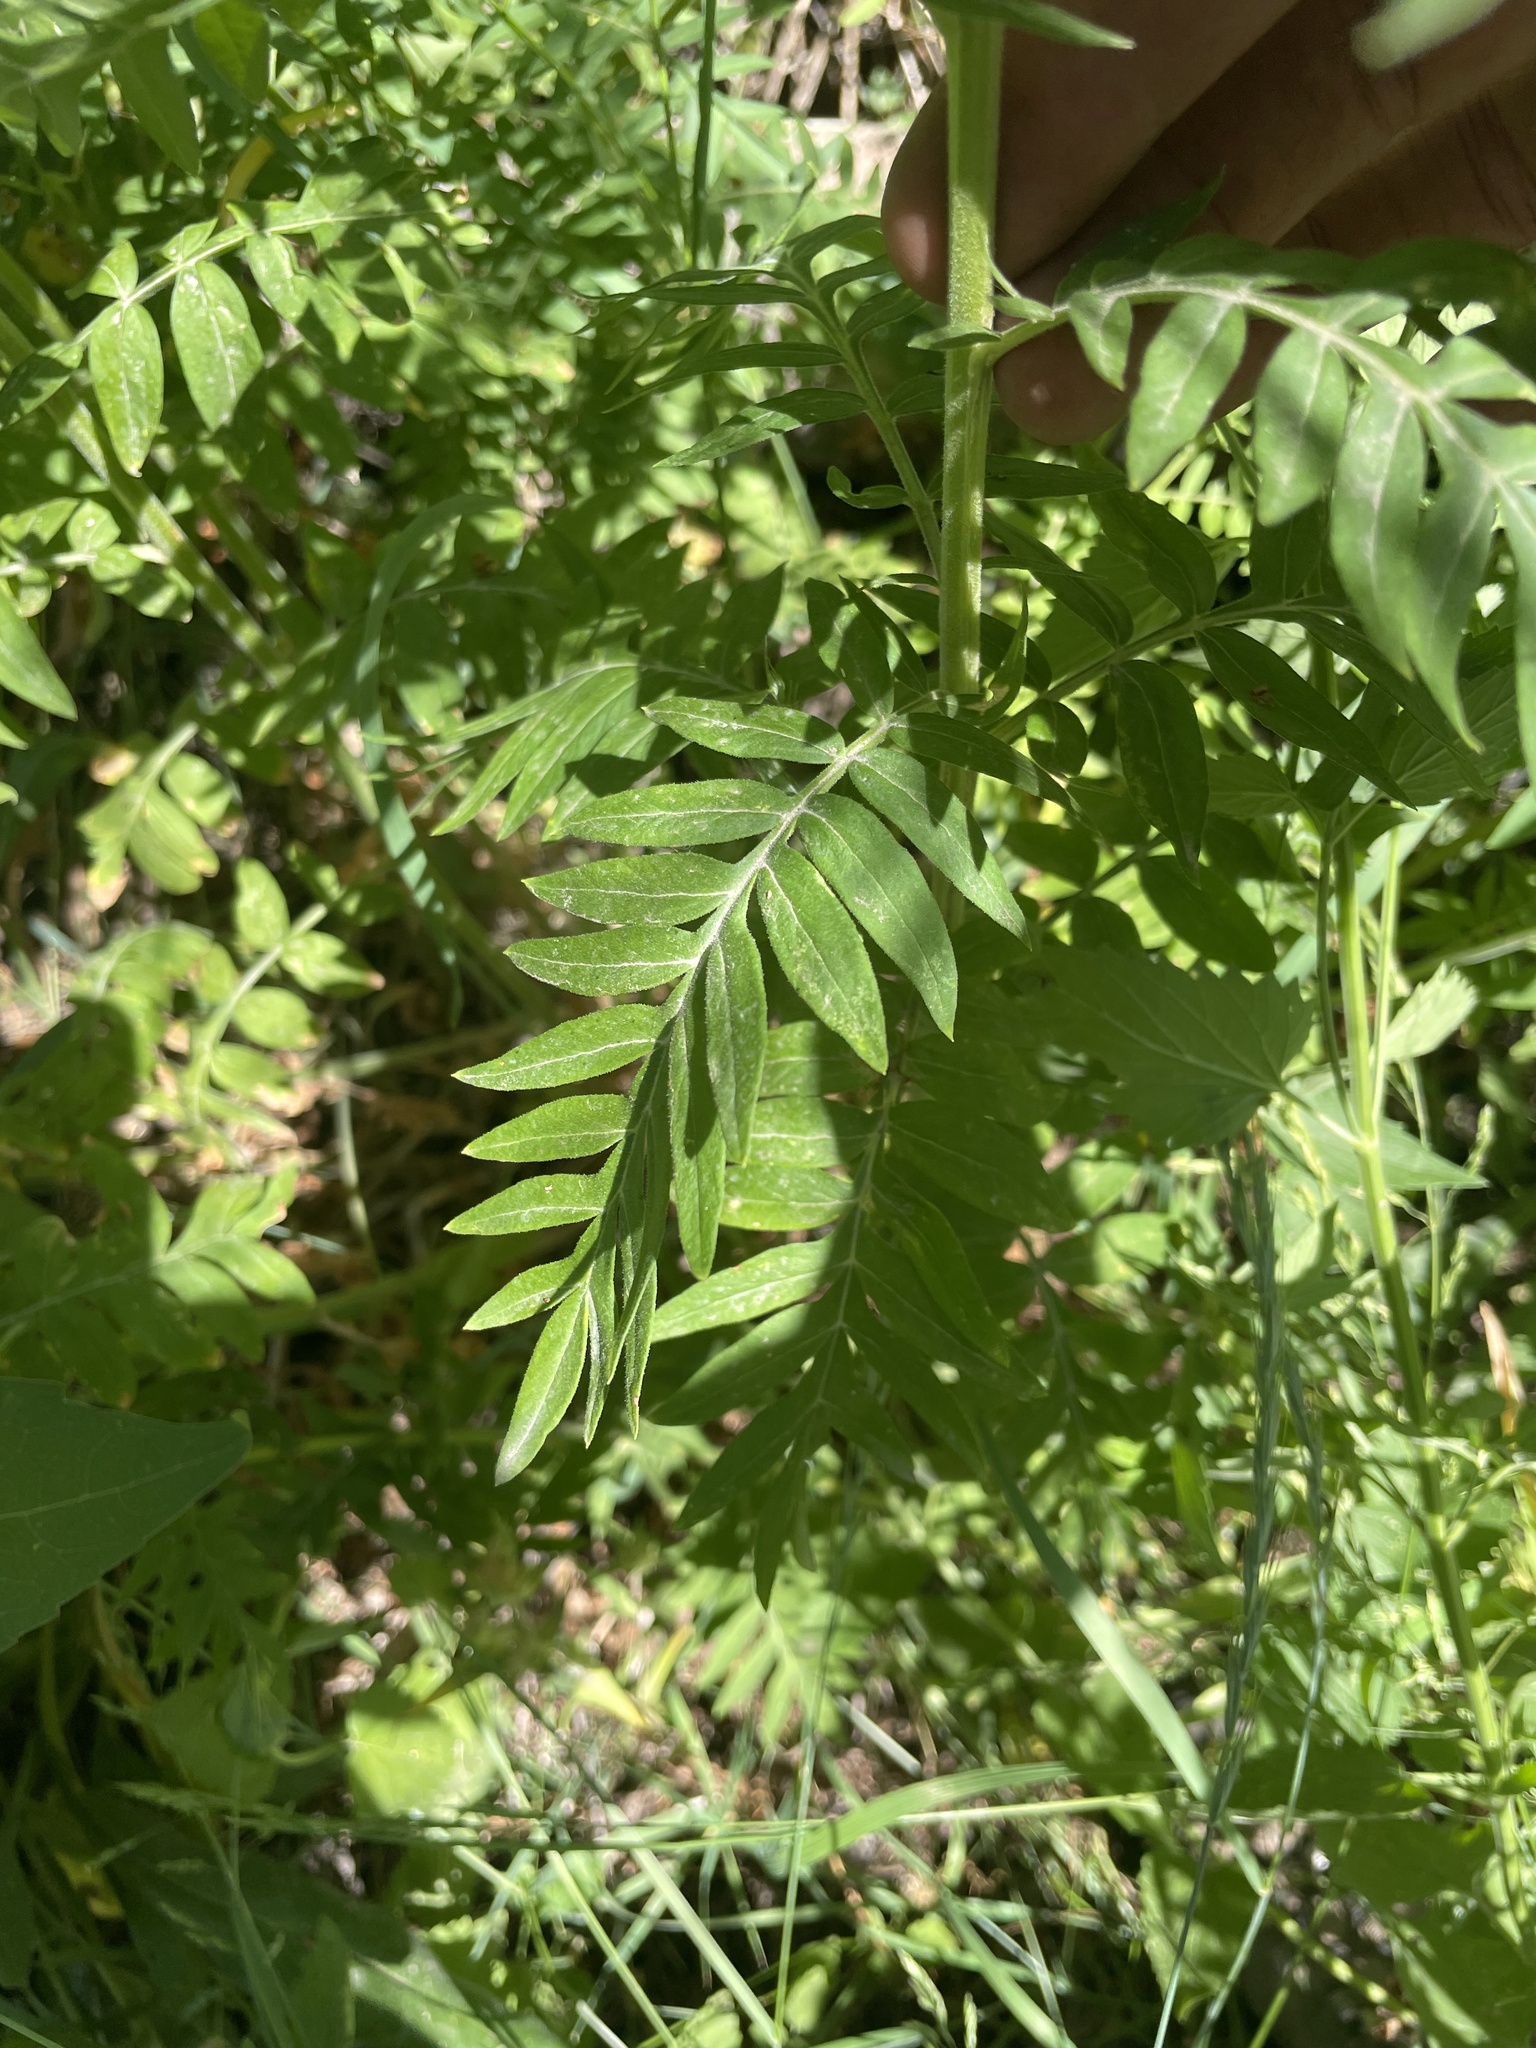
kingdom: Plantae
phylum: Tracheophyta
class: Magnoliopsida
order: Ericales
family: Polemoniaceae
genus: Polemonium
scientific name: Polemonium foliosissimum
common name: Leafy jacob's-ladder
